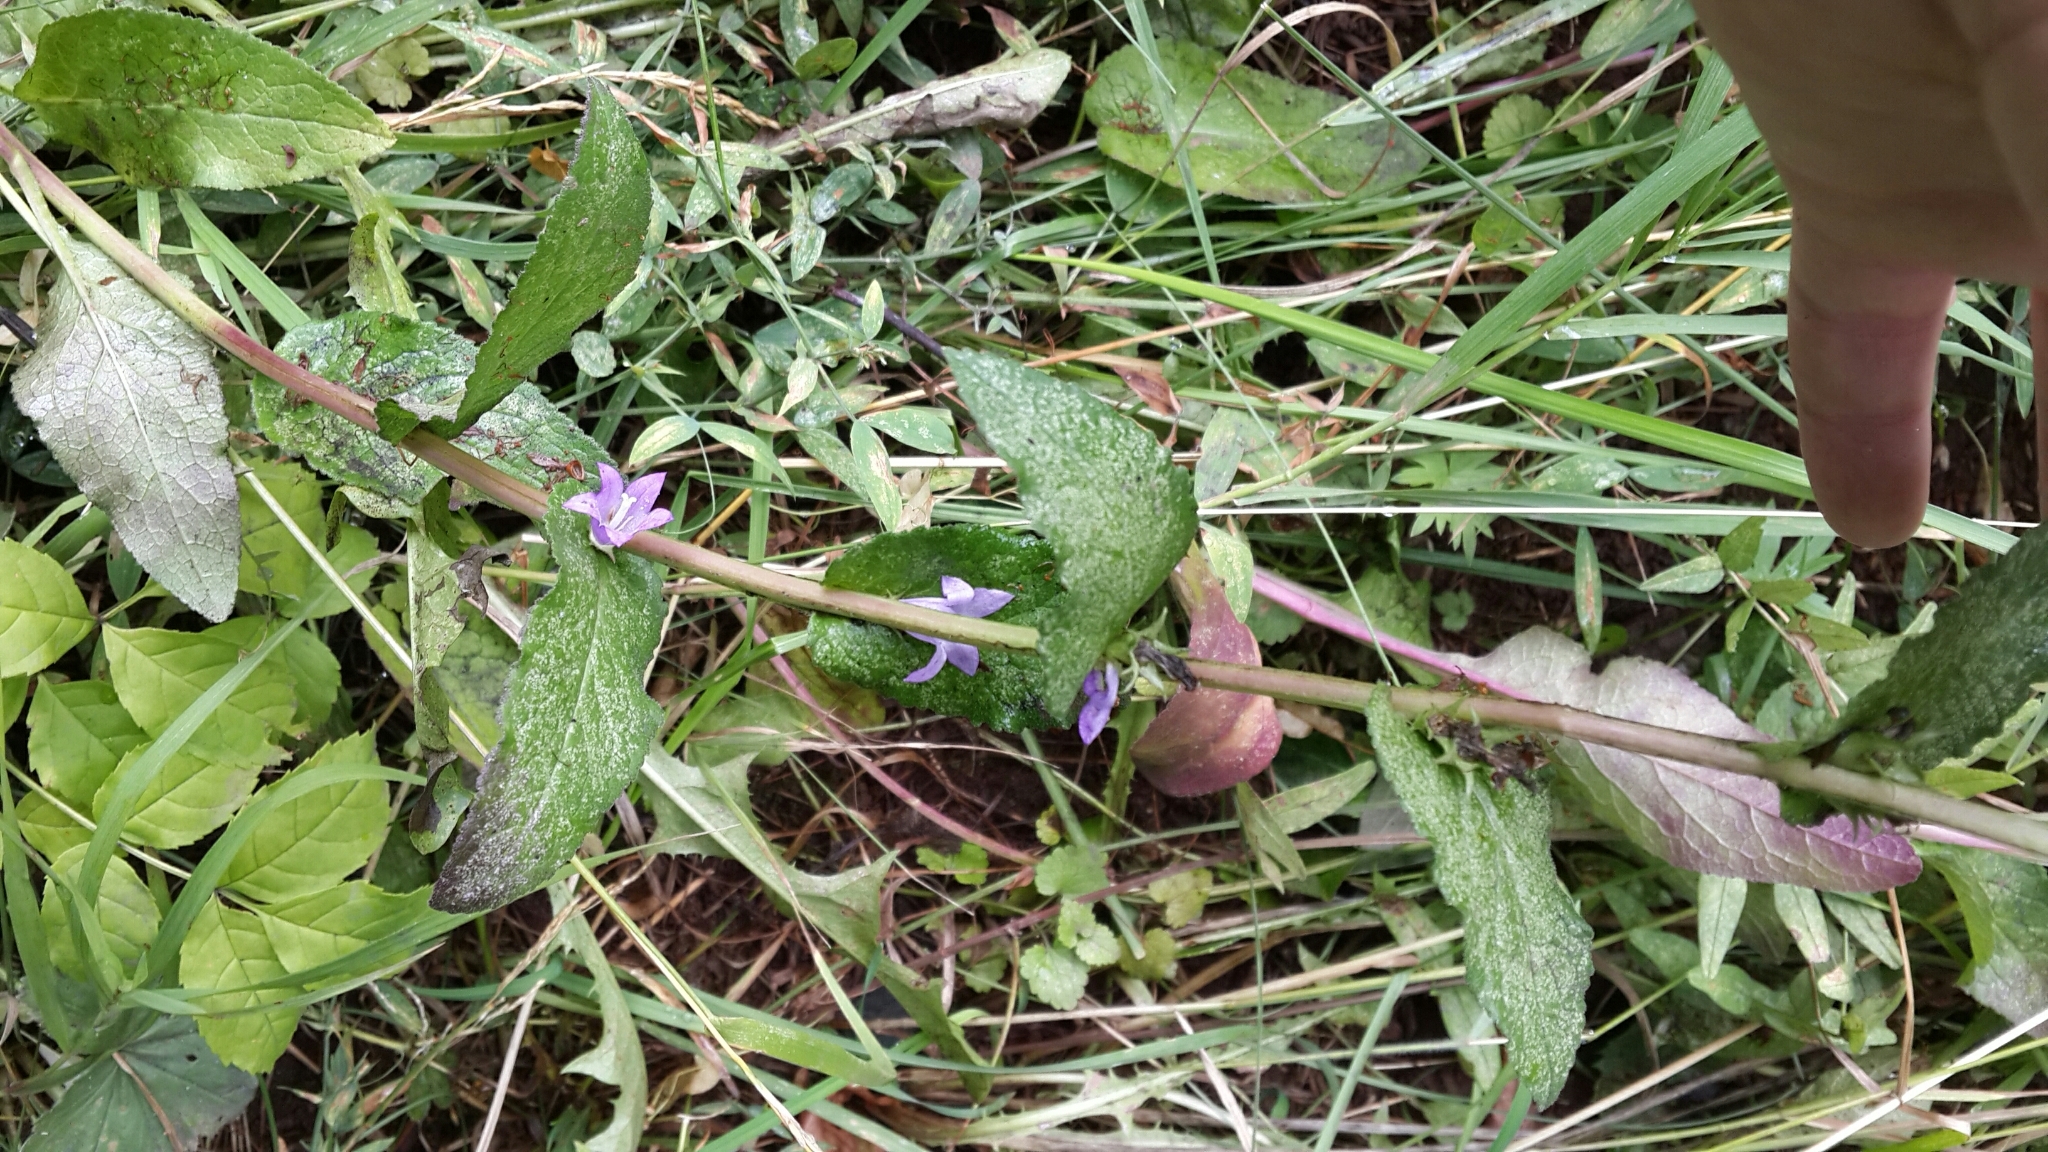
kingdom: Plantae
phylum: Tracheophyta
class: Magnoliopsida
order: Asterales
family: Campanulaceae
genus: Campanula
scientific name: Campanula glomerata
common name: Clustered bellflower
